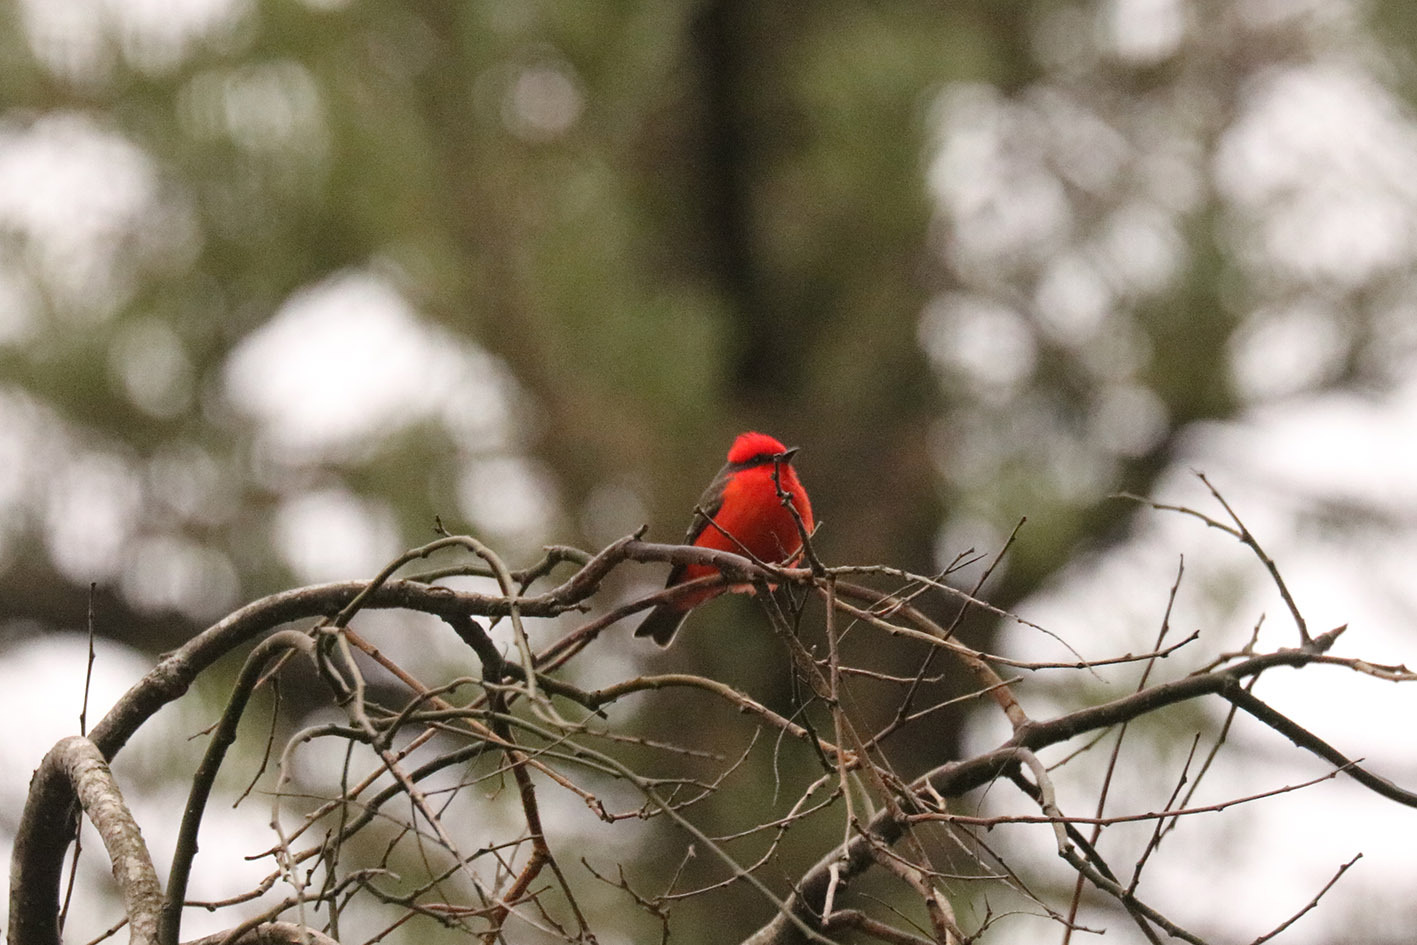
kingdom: Animalia
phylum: Chordata
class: Aves
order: Passeriformes
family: Tyrannidae
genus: Pyrocephalus
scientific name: Pyrocephalus rubinus
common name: Vermilion flycatcher
